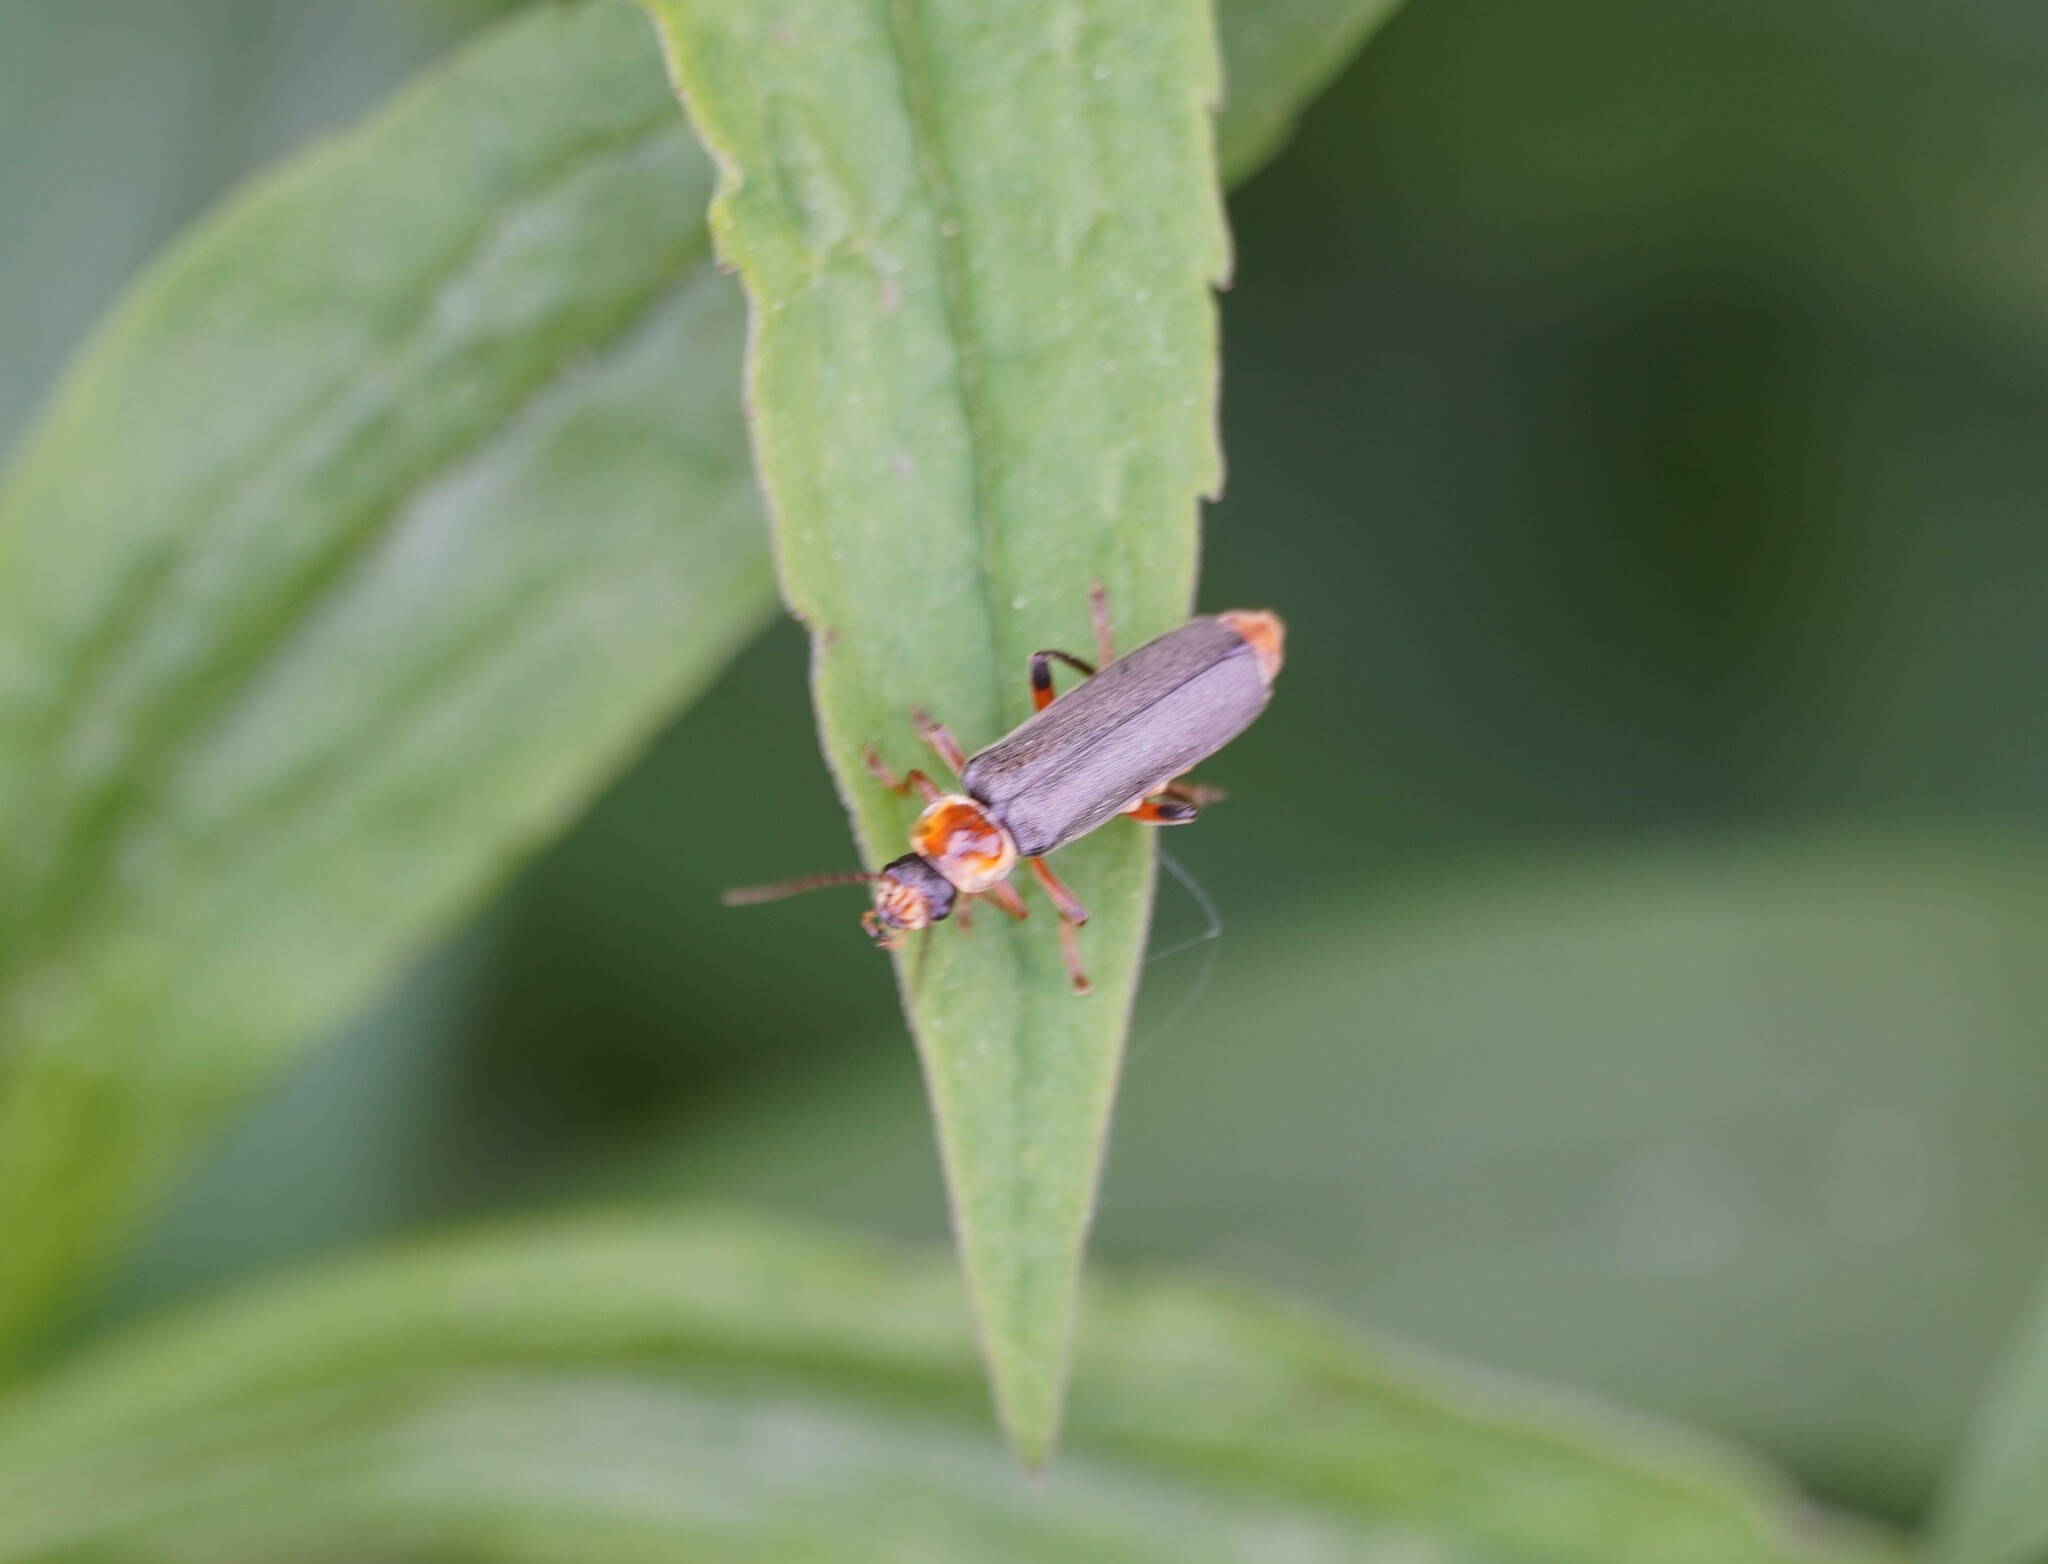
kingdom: Animalia
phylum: Arthropoda
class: Insecta
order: Coleoptera
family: Cantharidae
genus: Cantharis
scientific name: Cantharis nigricans
